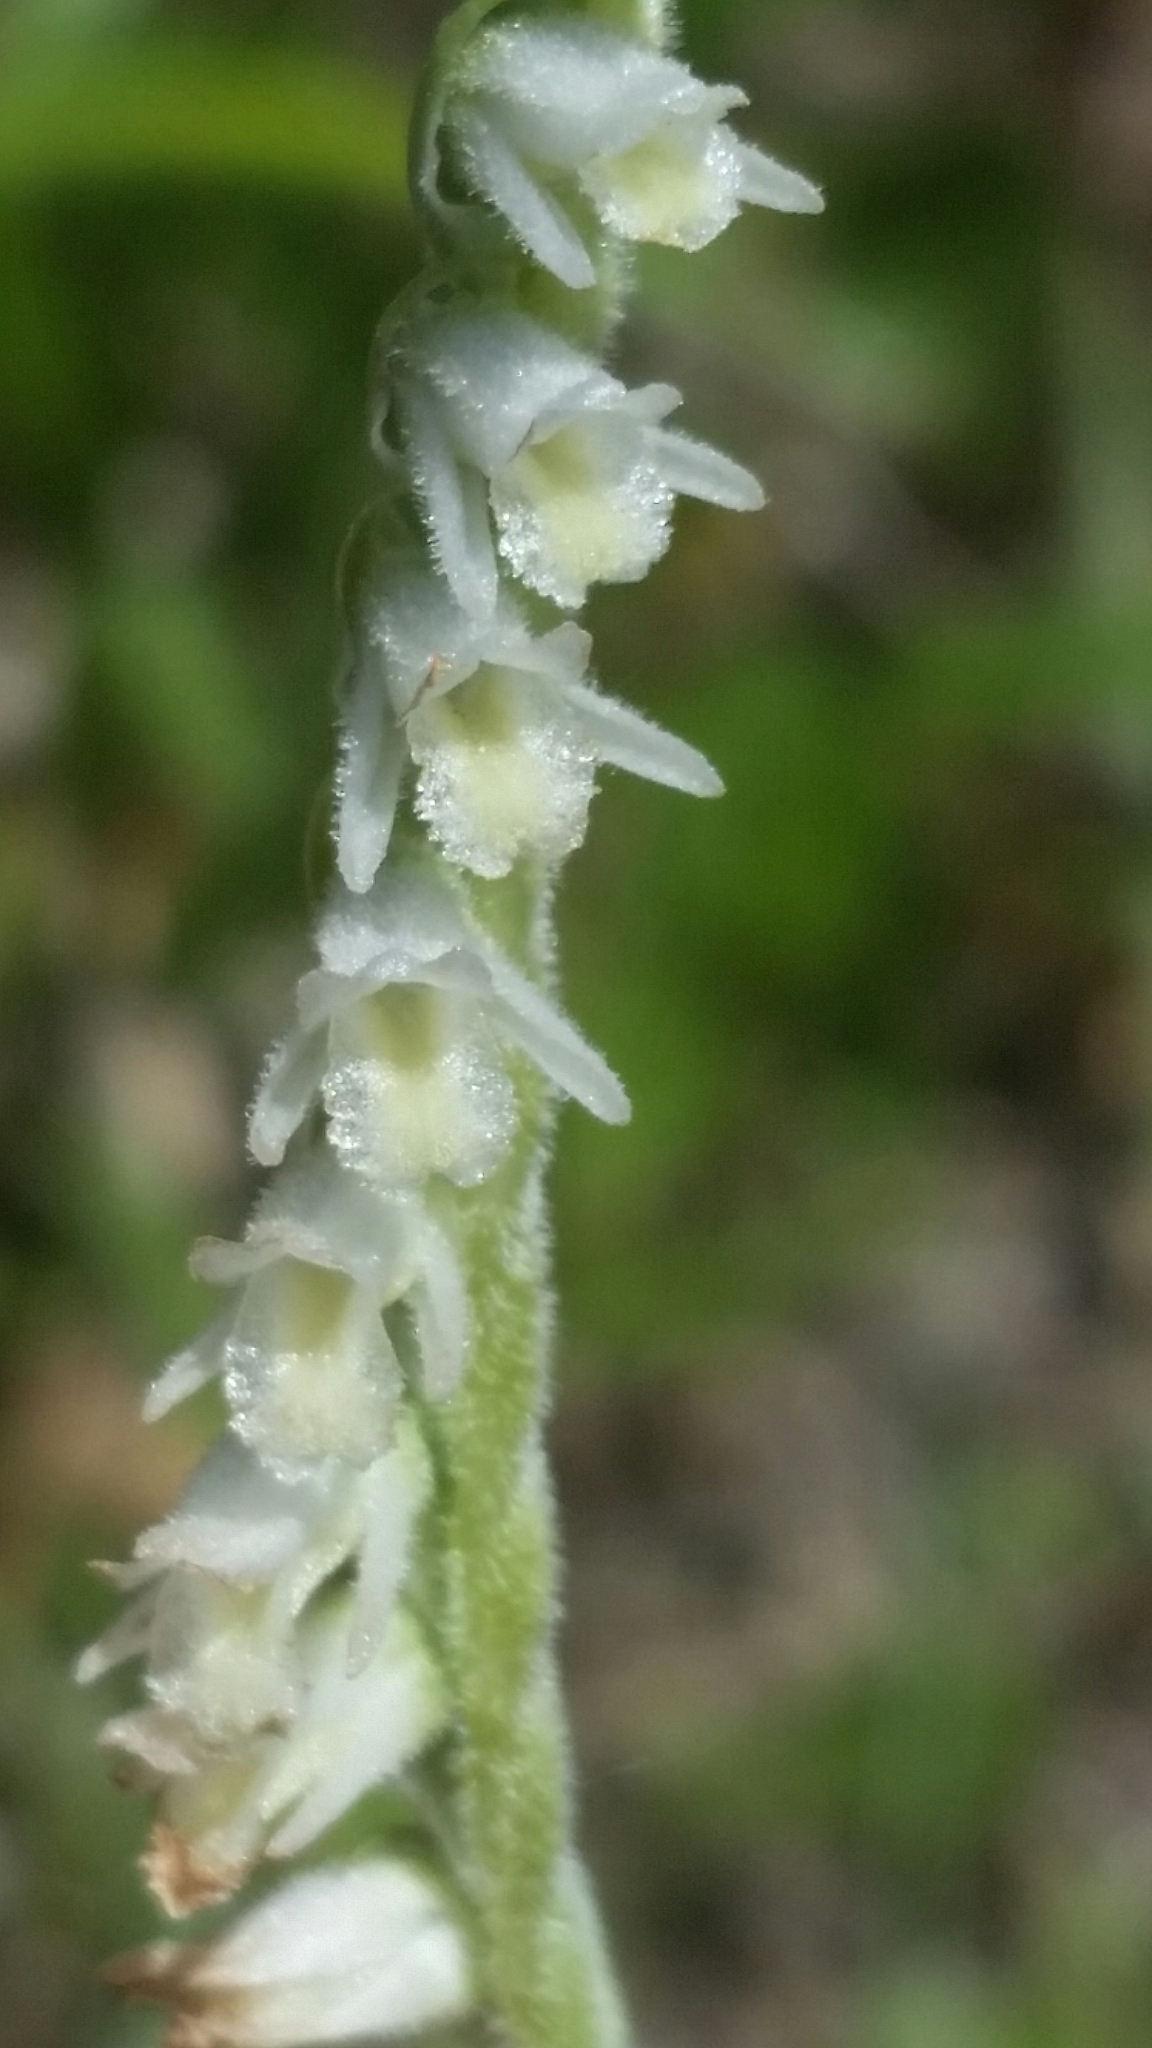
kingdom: Plantae
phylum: Tracheophyta
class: Liliopsida
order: Asparagales
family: Orchidaceae
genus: Spiranthes
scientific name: Spiranthes vernalis
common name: Spring ladies'-tresses
